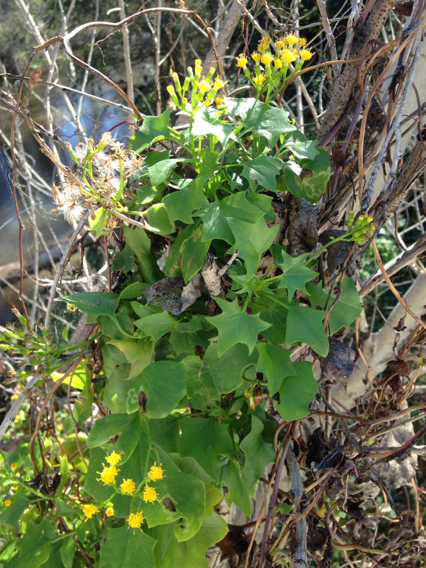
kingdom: Plantae
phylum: Tracheophyta
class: Magnoliopsida
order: Asterales
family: Asteraceae
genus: Delairea
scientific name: Delairea odorata
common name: Cape-ivy
